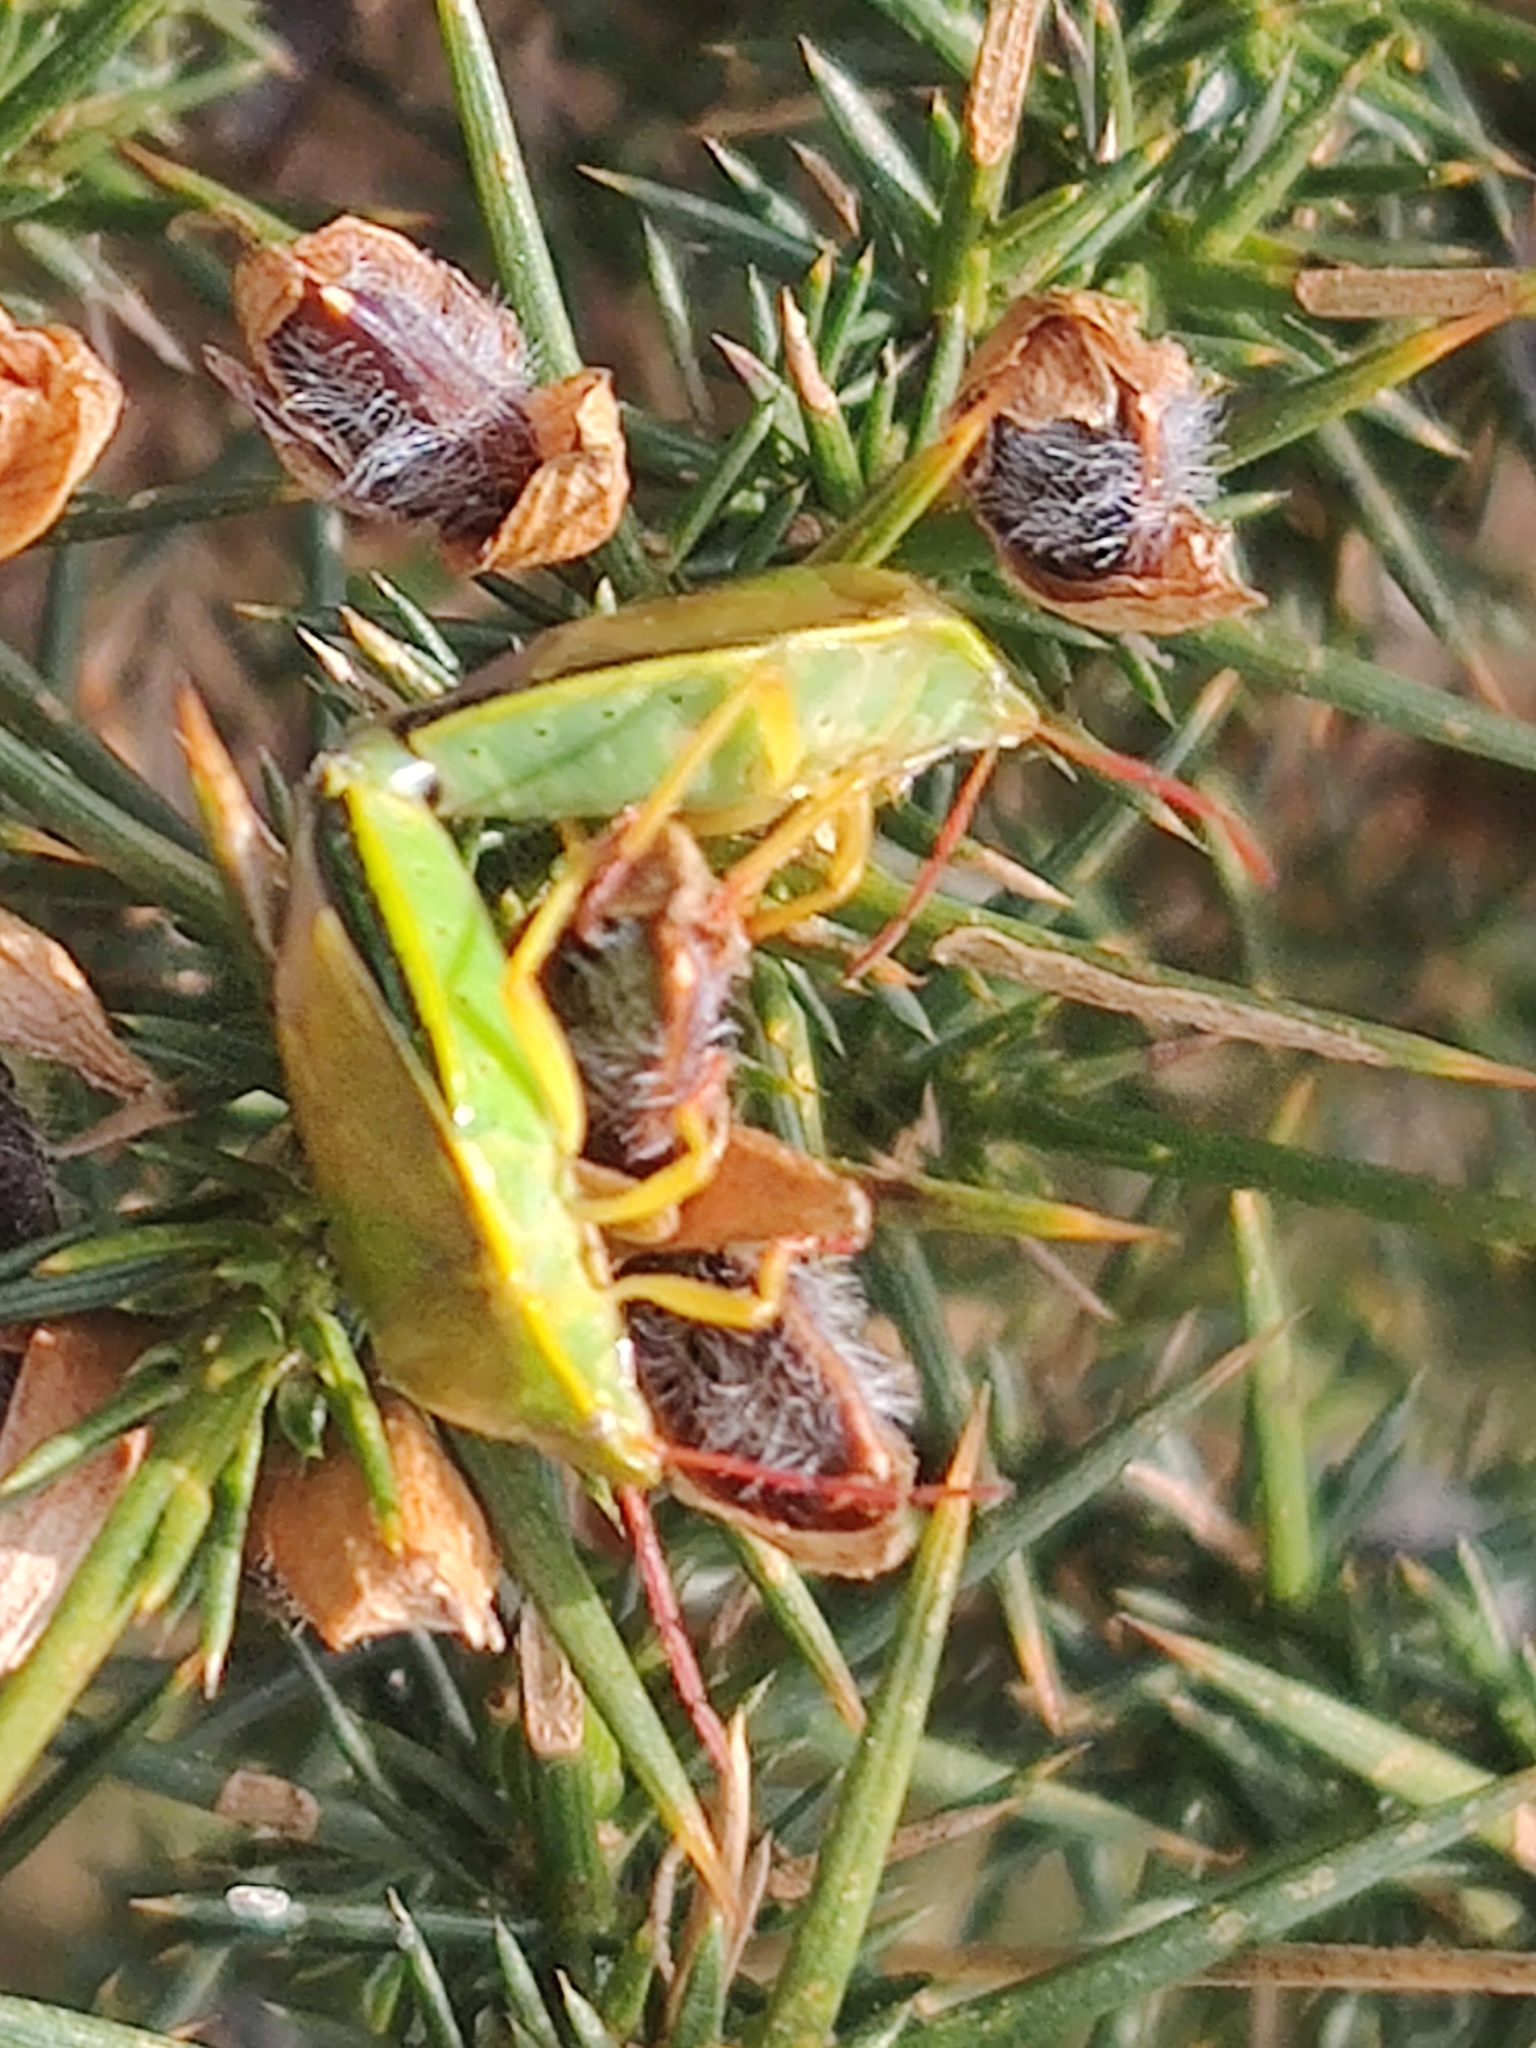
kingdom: Animalia
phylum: Arthropoda
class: Insecta
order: Hemiptera
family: Pentatomidae
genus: Piezodorus
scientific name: Piezodorus lituratus
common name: Stink bug
